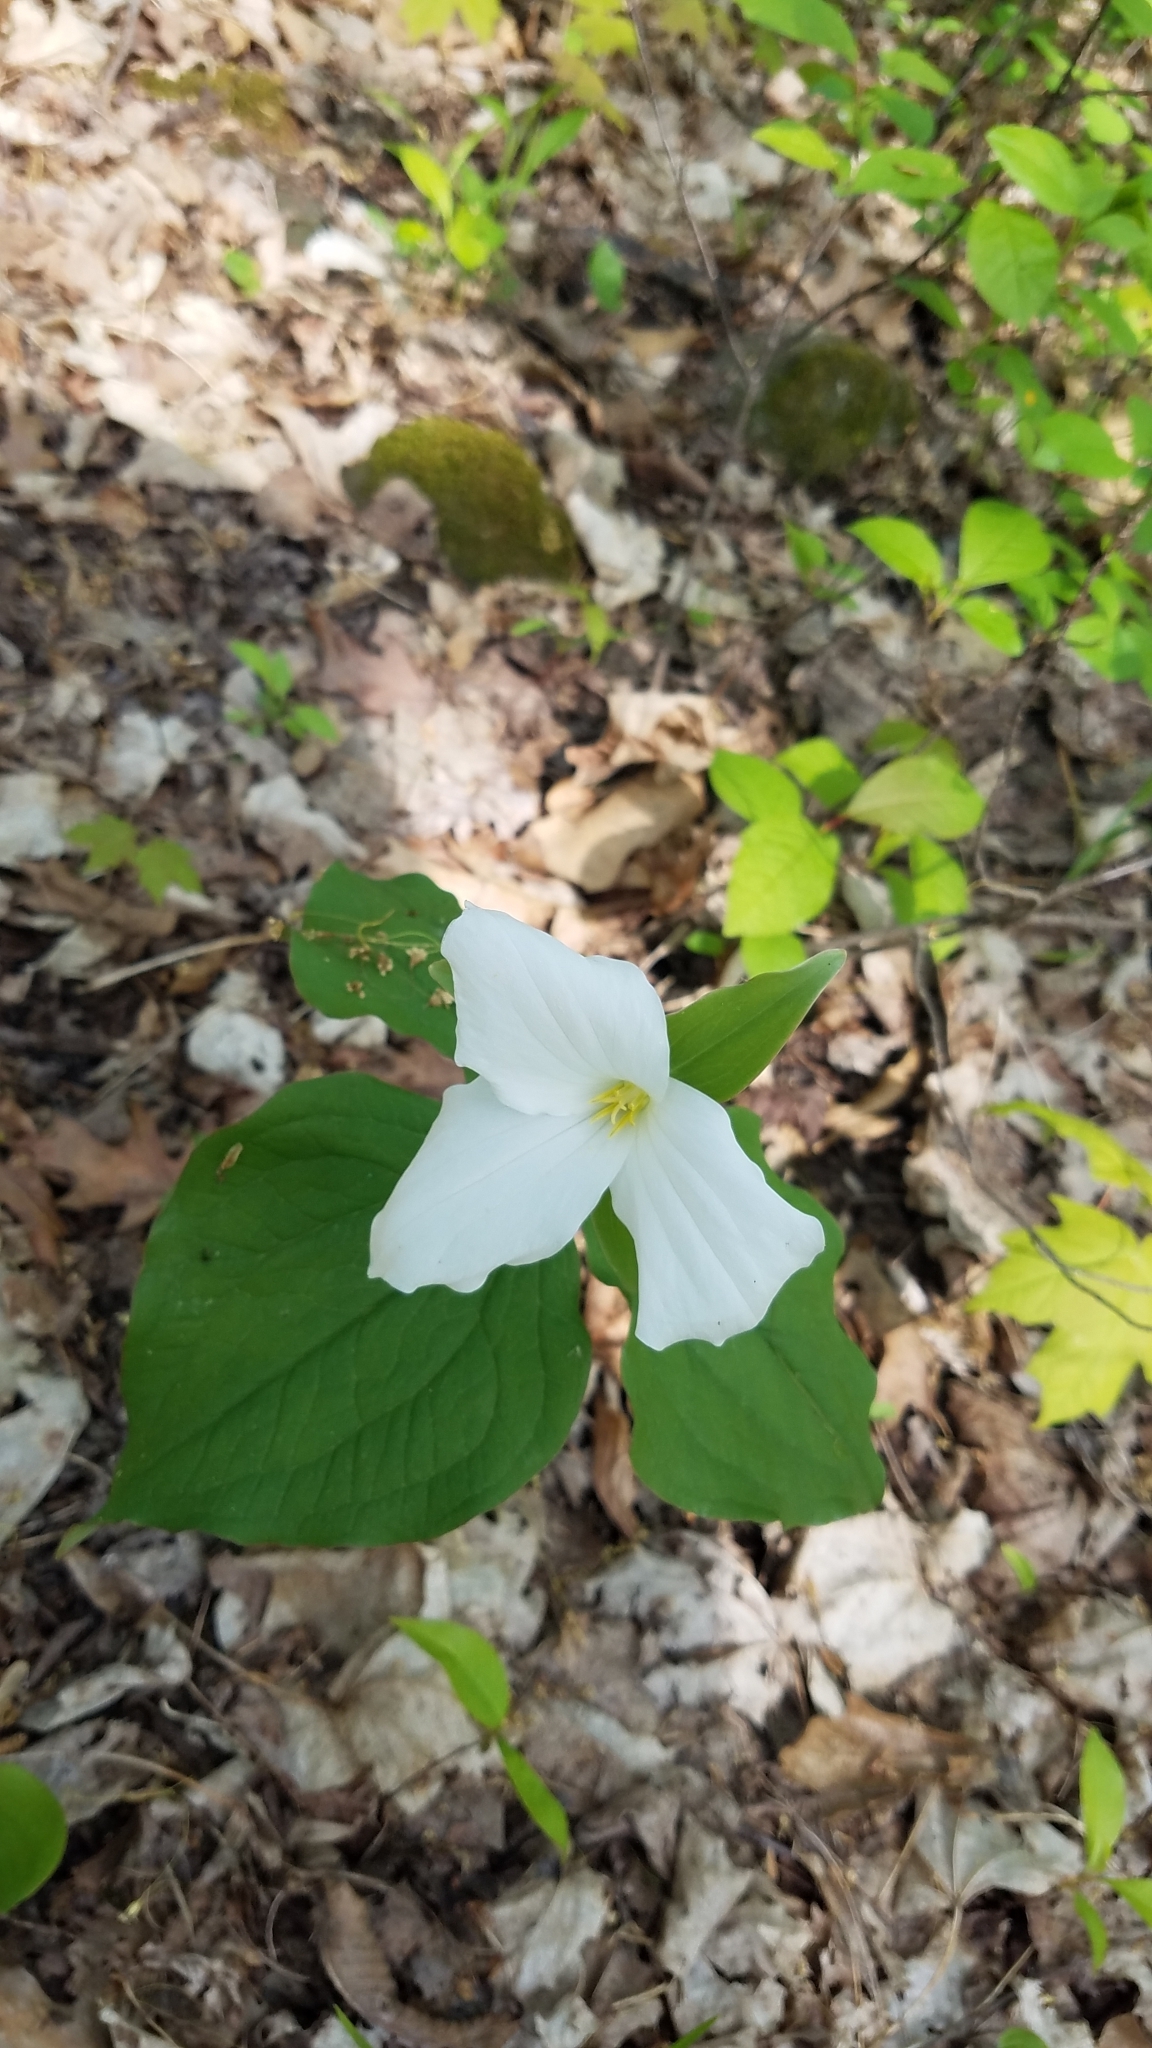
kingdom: Plantae
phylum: Tracheophyta
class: Liliopsida
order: Liliales
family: Melanthiaceae
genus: Trillium
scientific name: Trillium grandiflorum
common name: Great white trillium
